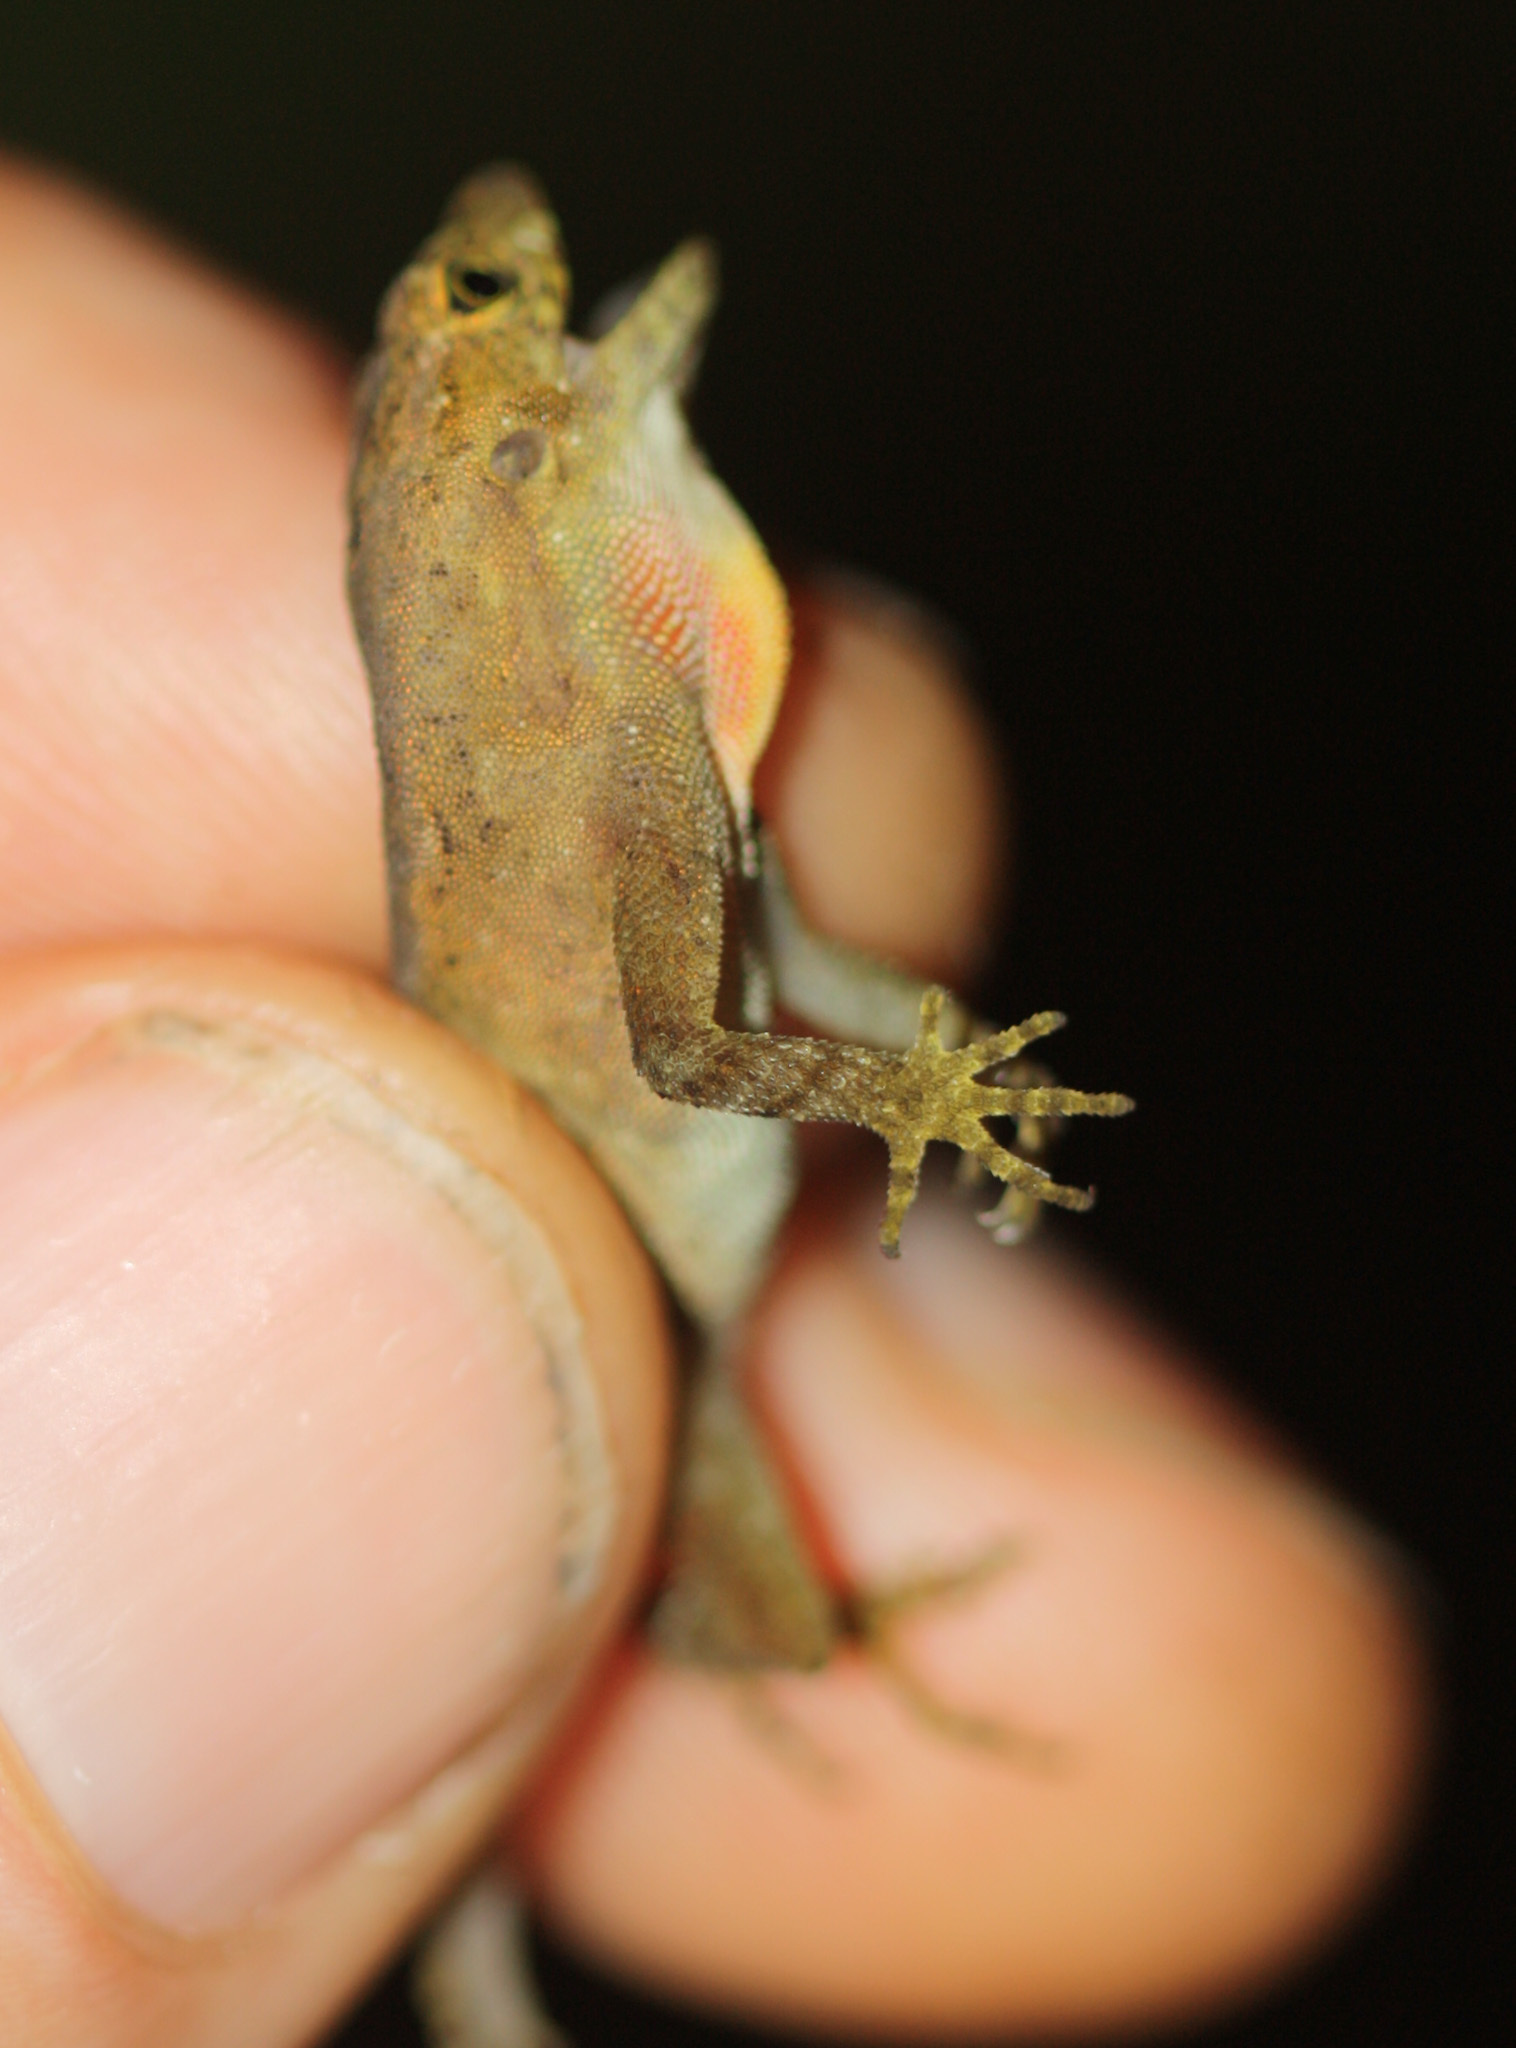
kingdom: Animalia
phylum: Chordata
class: Squamata
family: Dactyloidae
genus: Anolis
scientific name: Anolis humilis
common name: Humble anole
